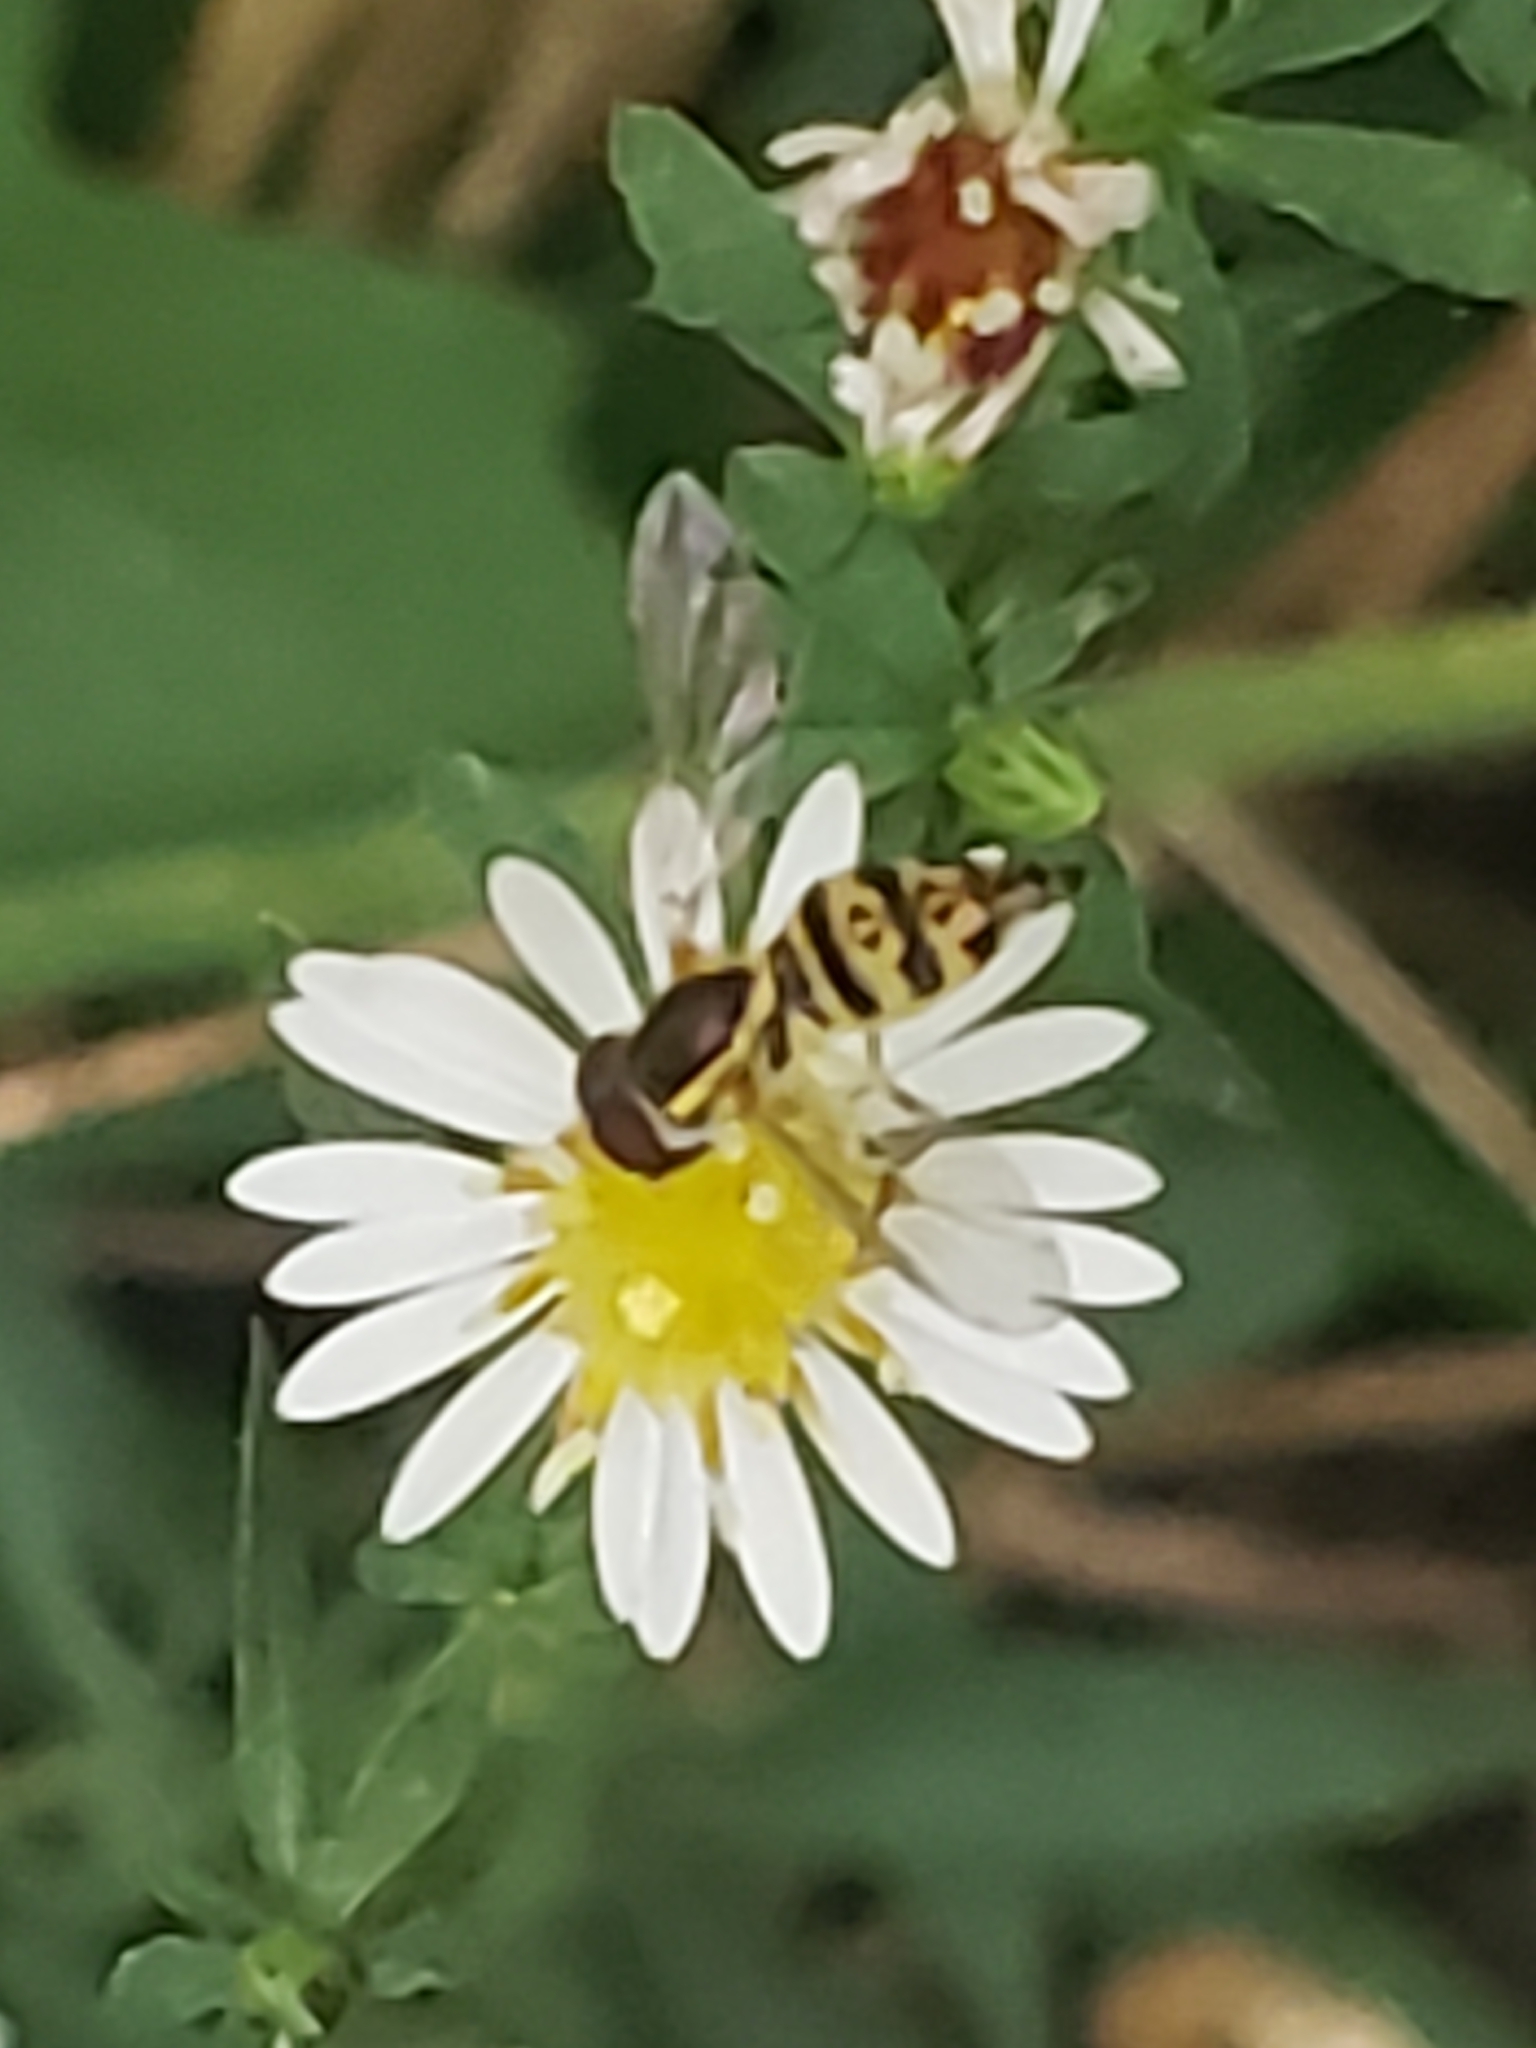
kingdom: Animalia
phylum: Arthropoda
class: Insecta
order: Diptera
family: Syrphidae
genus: Toxomerus
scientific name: Toxomerus geminatus
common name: Eastern calligrapher
